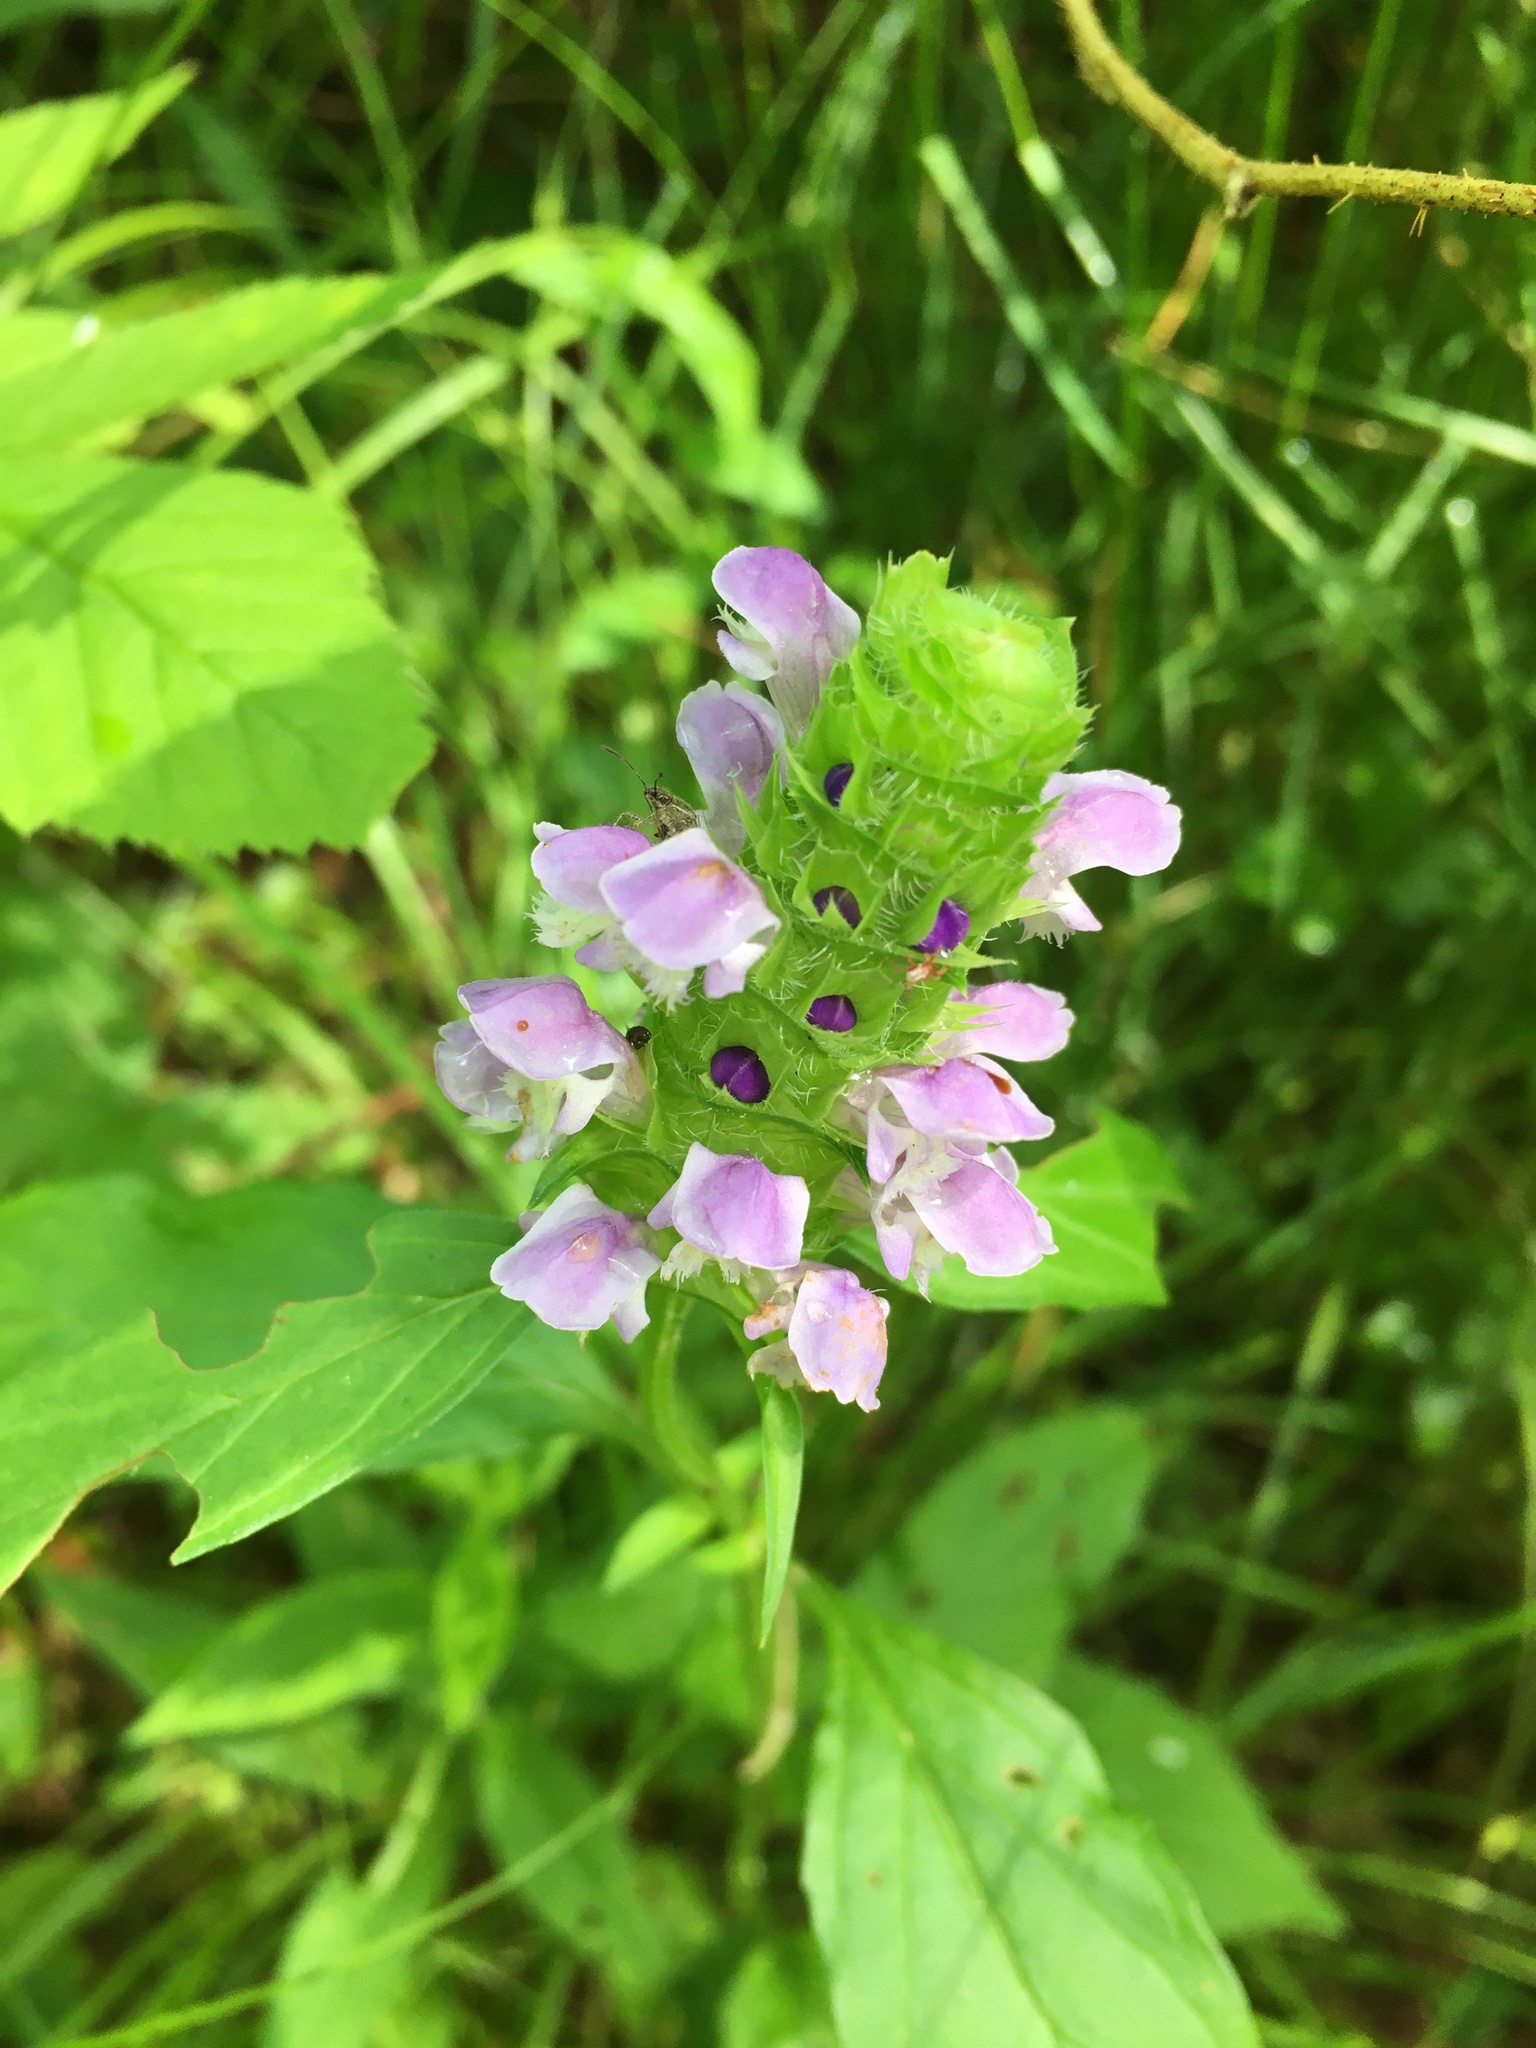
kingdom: Plantae
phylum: Tracheophyta
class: Magnoliopsida
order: Lamiales
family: Lamiaceae
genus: Prunella
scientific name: Prunella vulgaris
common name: Heal-all
